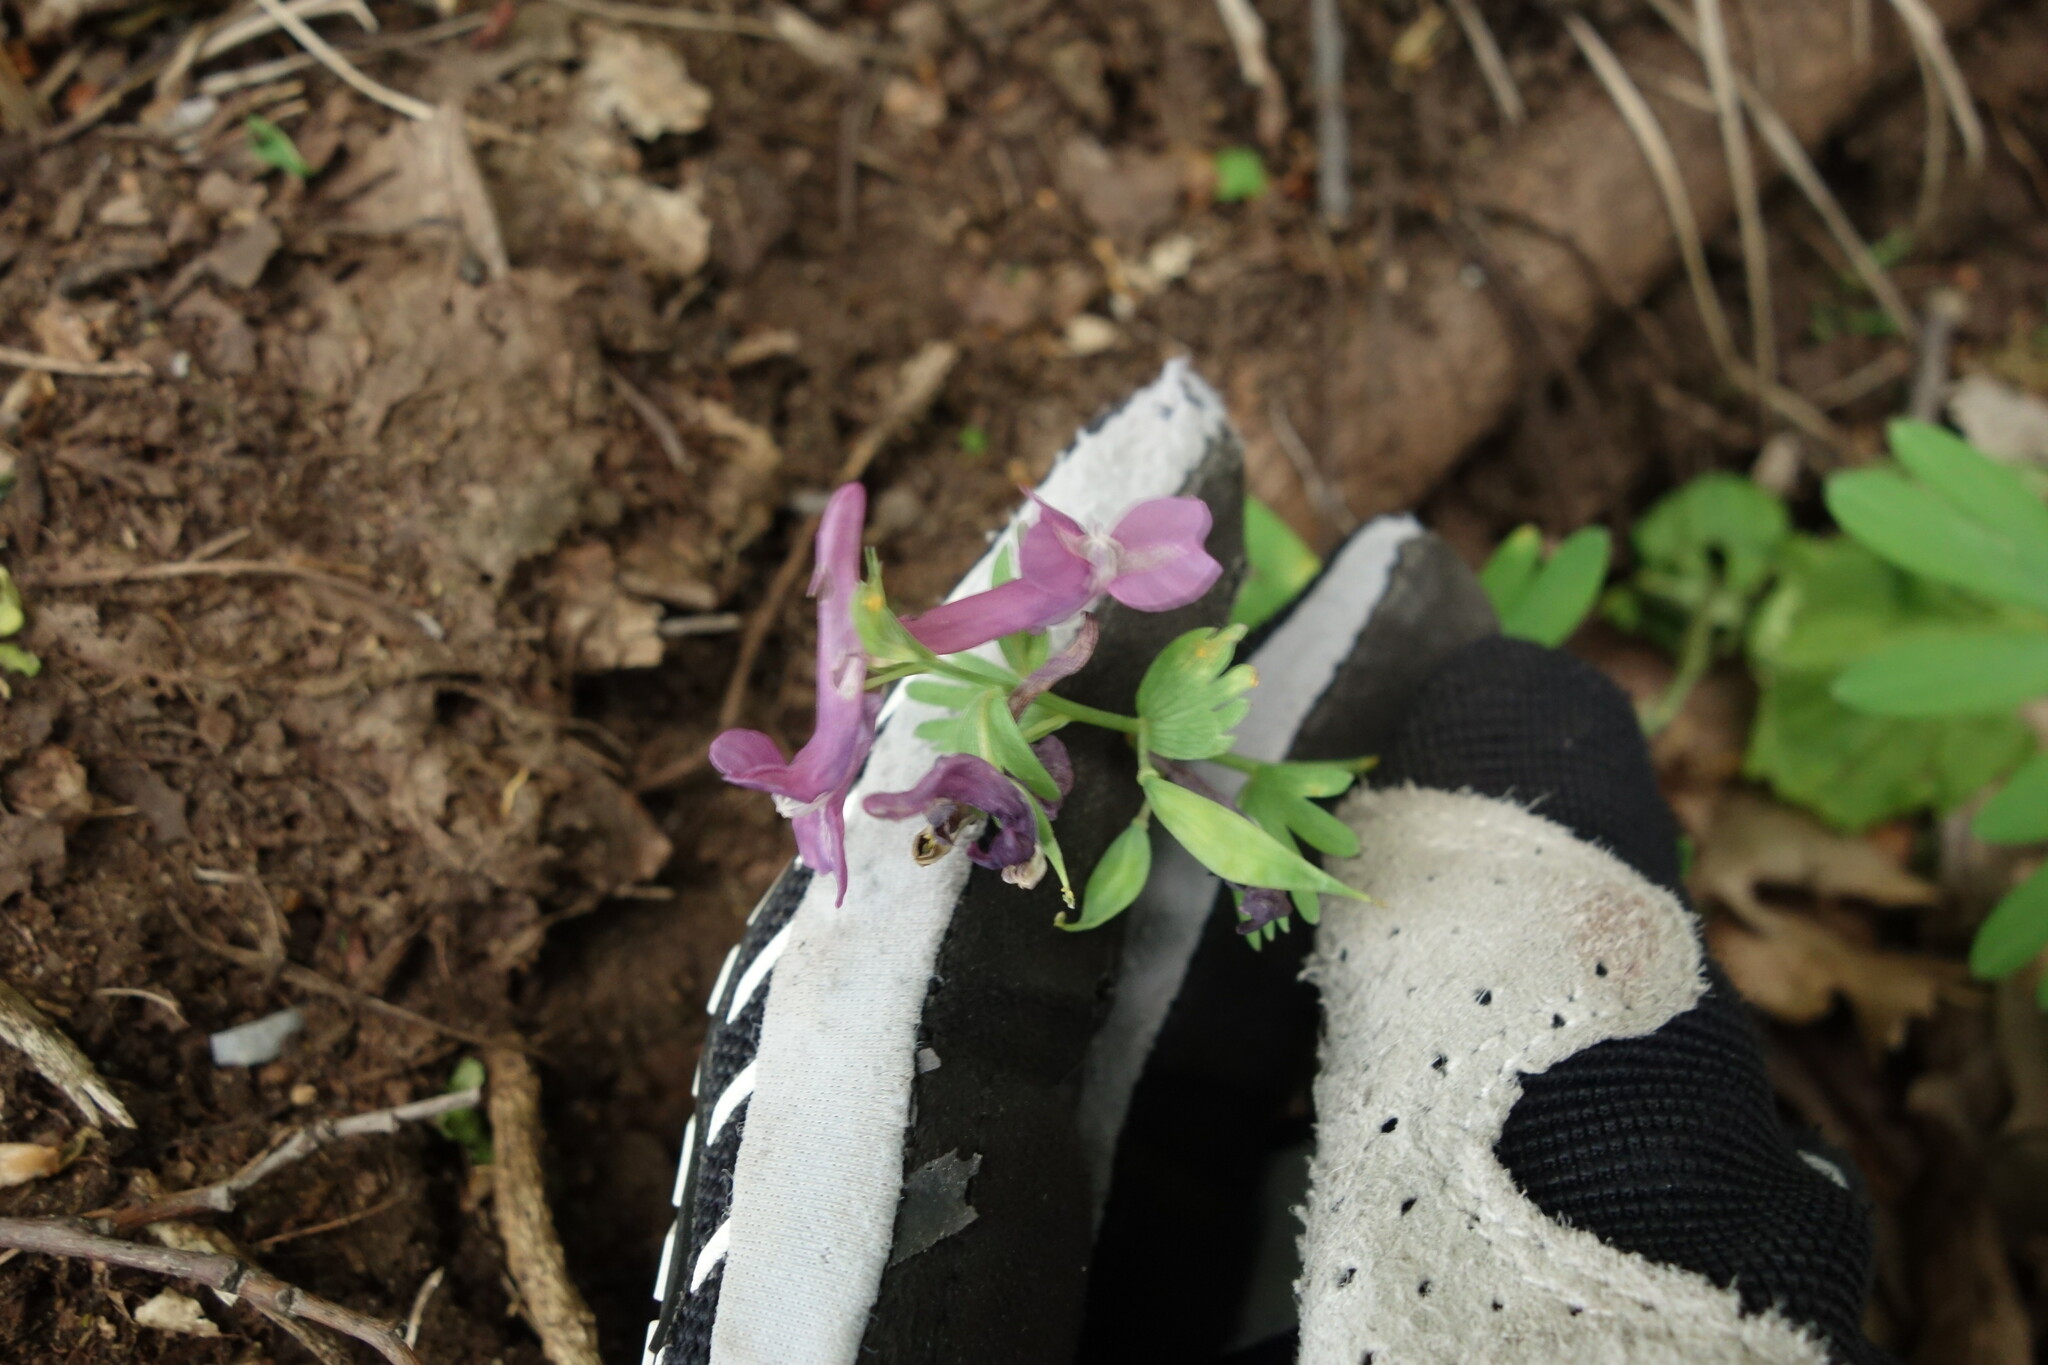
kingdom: Plantae
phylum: Tracheophyta
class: Magnoliopsida
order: Ranunculales
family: Papaveraceae
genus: Corydalis
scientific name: Corydalis solida
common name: Bird-in-a-bush
